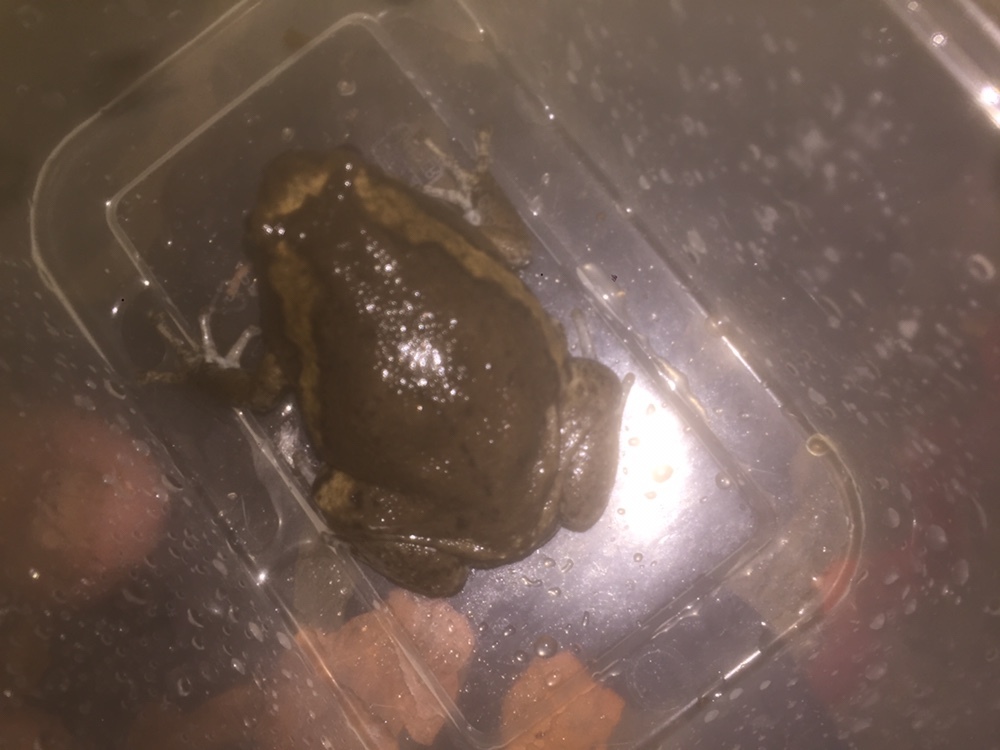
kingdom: Animalia
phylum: Chordata
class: Amphibia
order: Anura
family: Microhylidae
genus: Kaloula
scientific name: Kaloula pulchra
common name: Common,banded bullfrog
